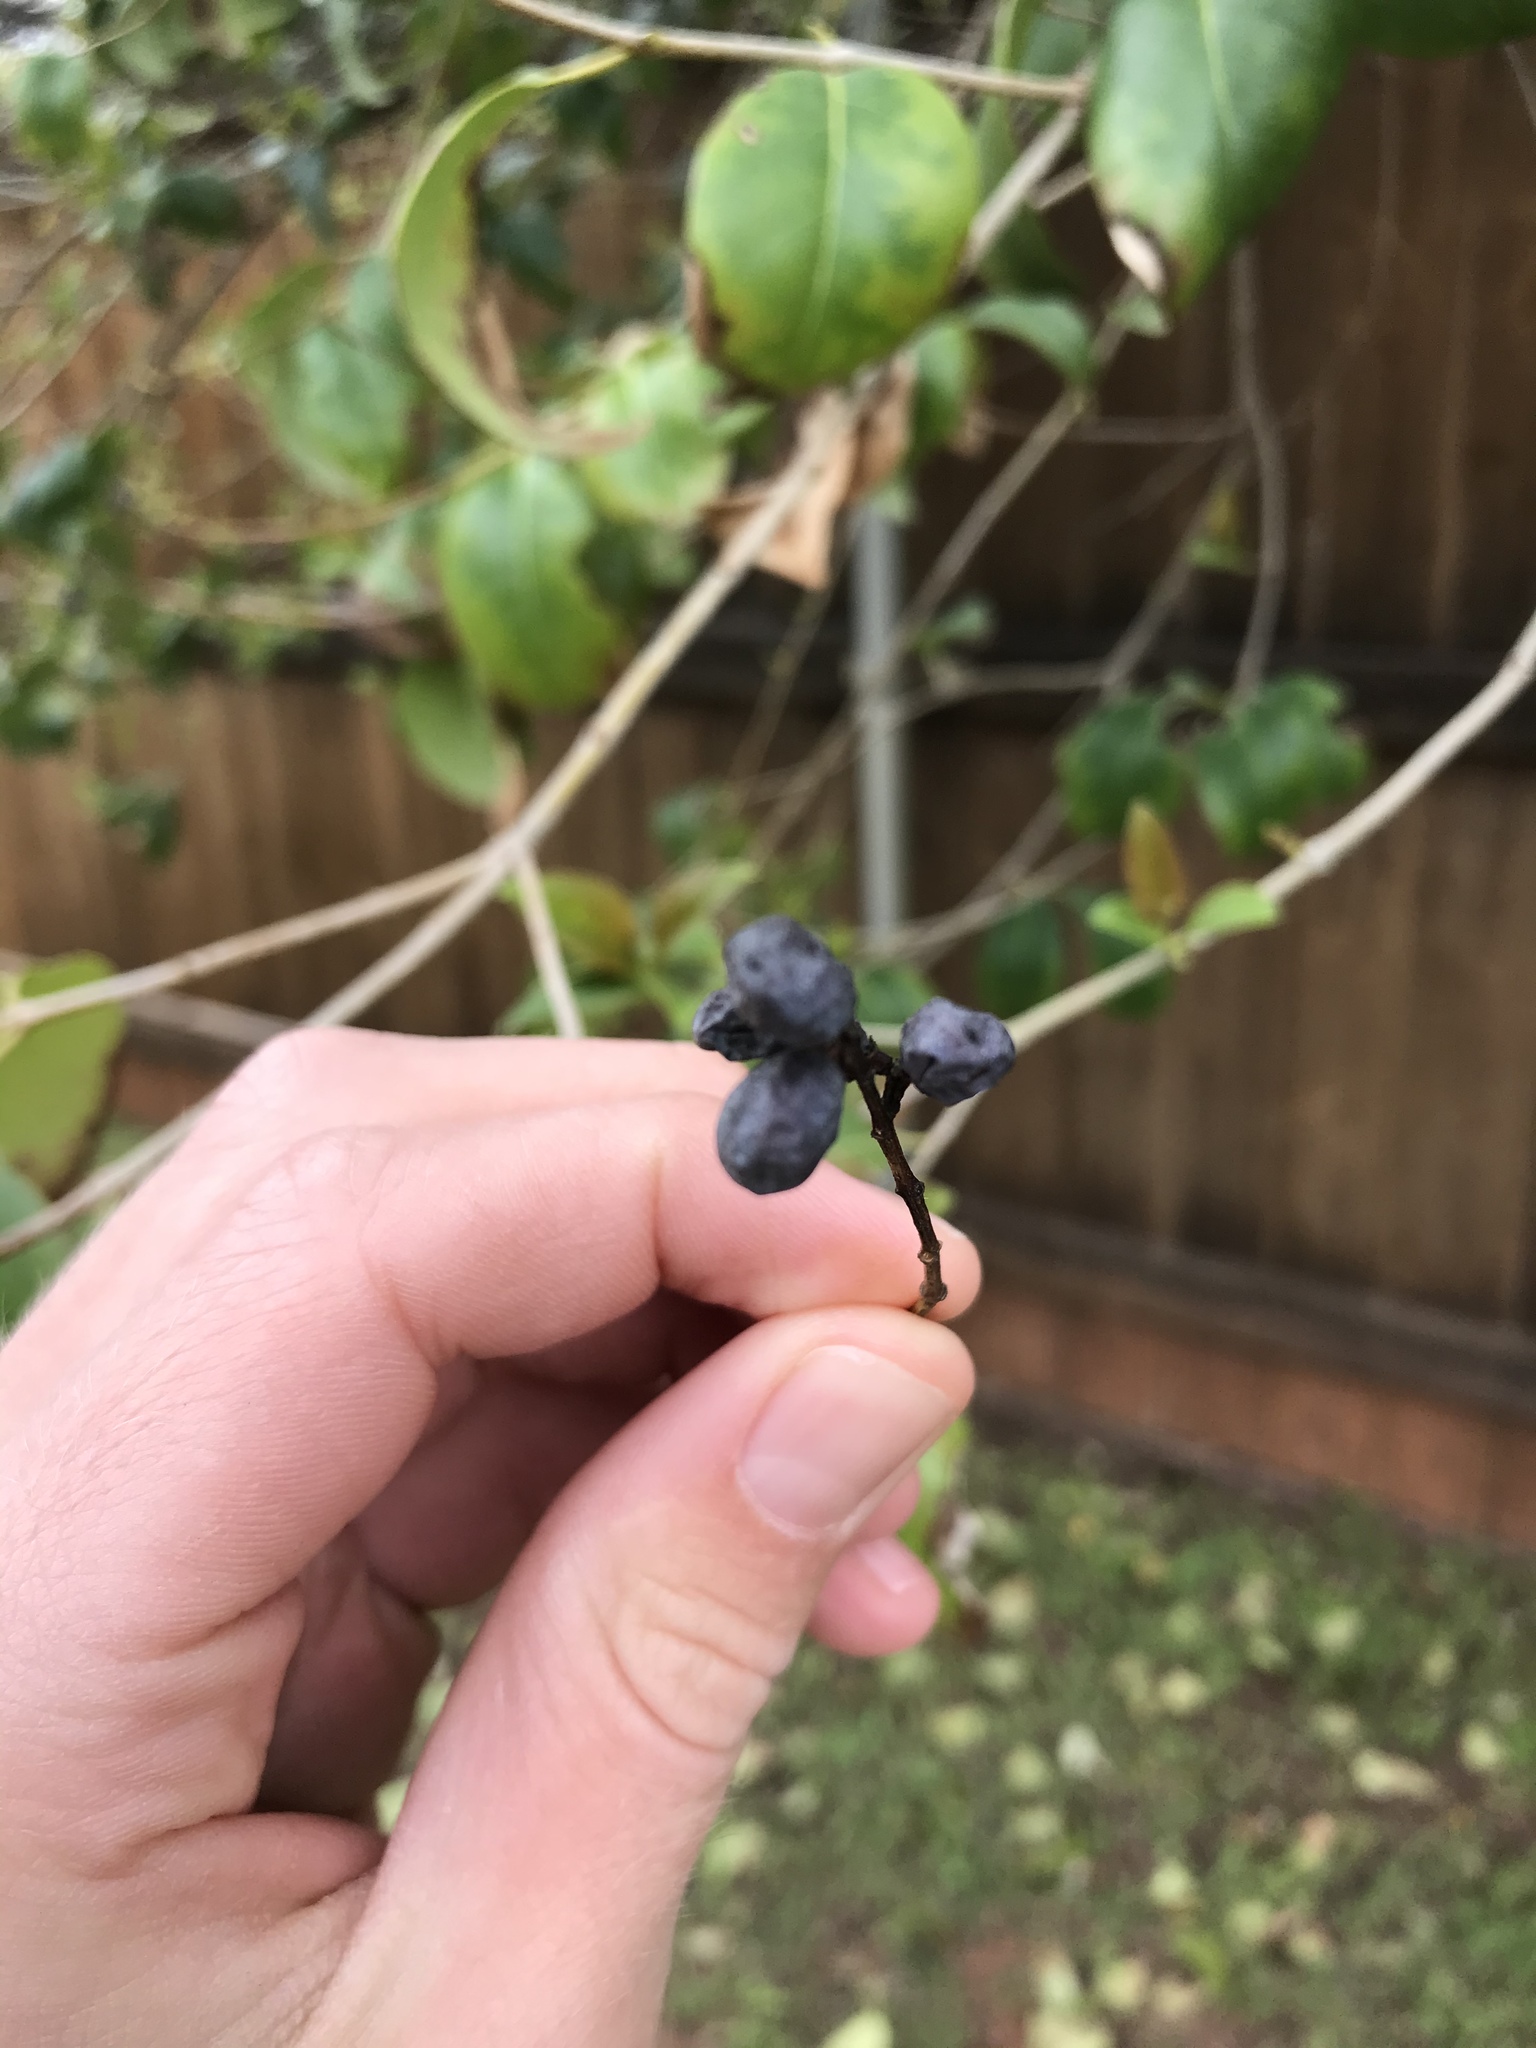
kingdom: Plantae
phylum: Tracheophyta
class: Magnoliopsida
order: Lamiales
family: Oleaceae
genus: Ligustrum
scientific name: Ligustrum lucidum
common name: Glossy privet
